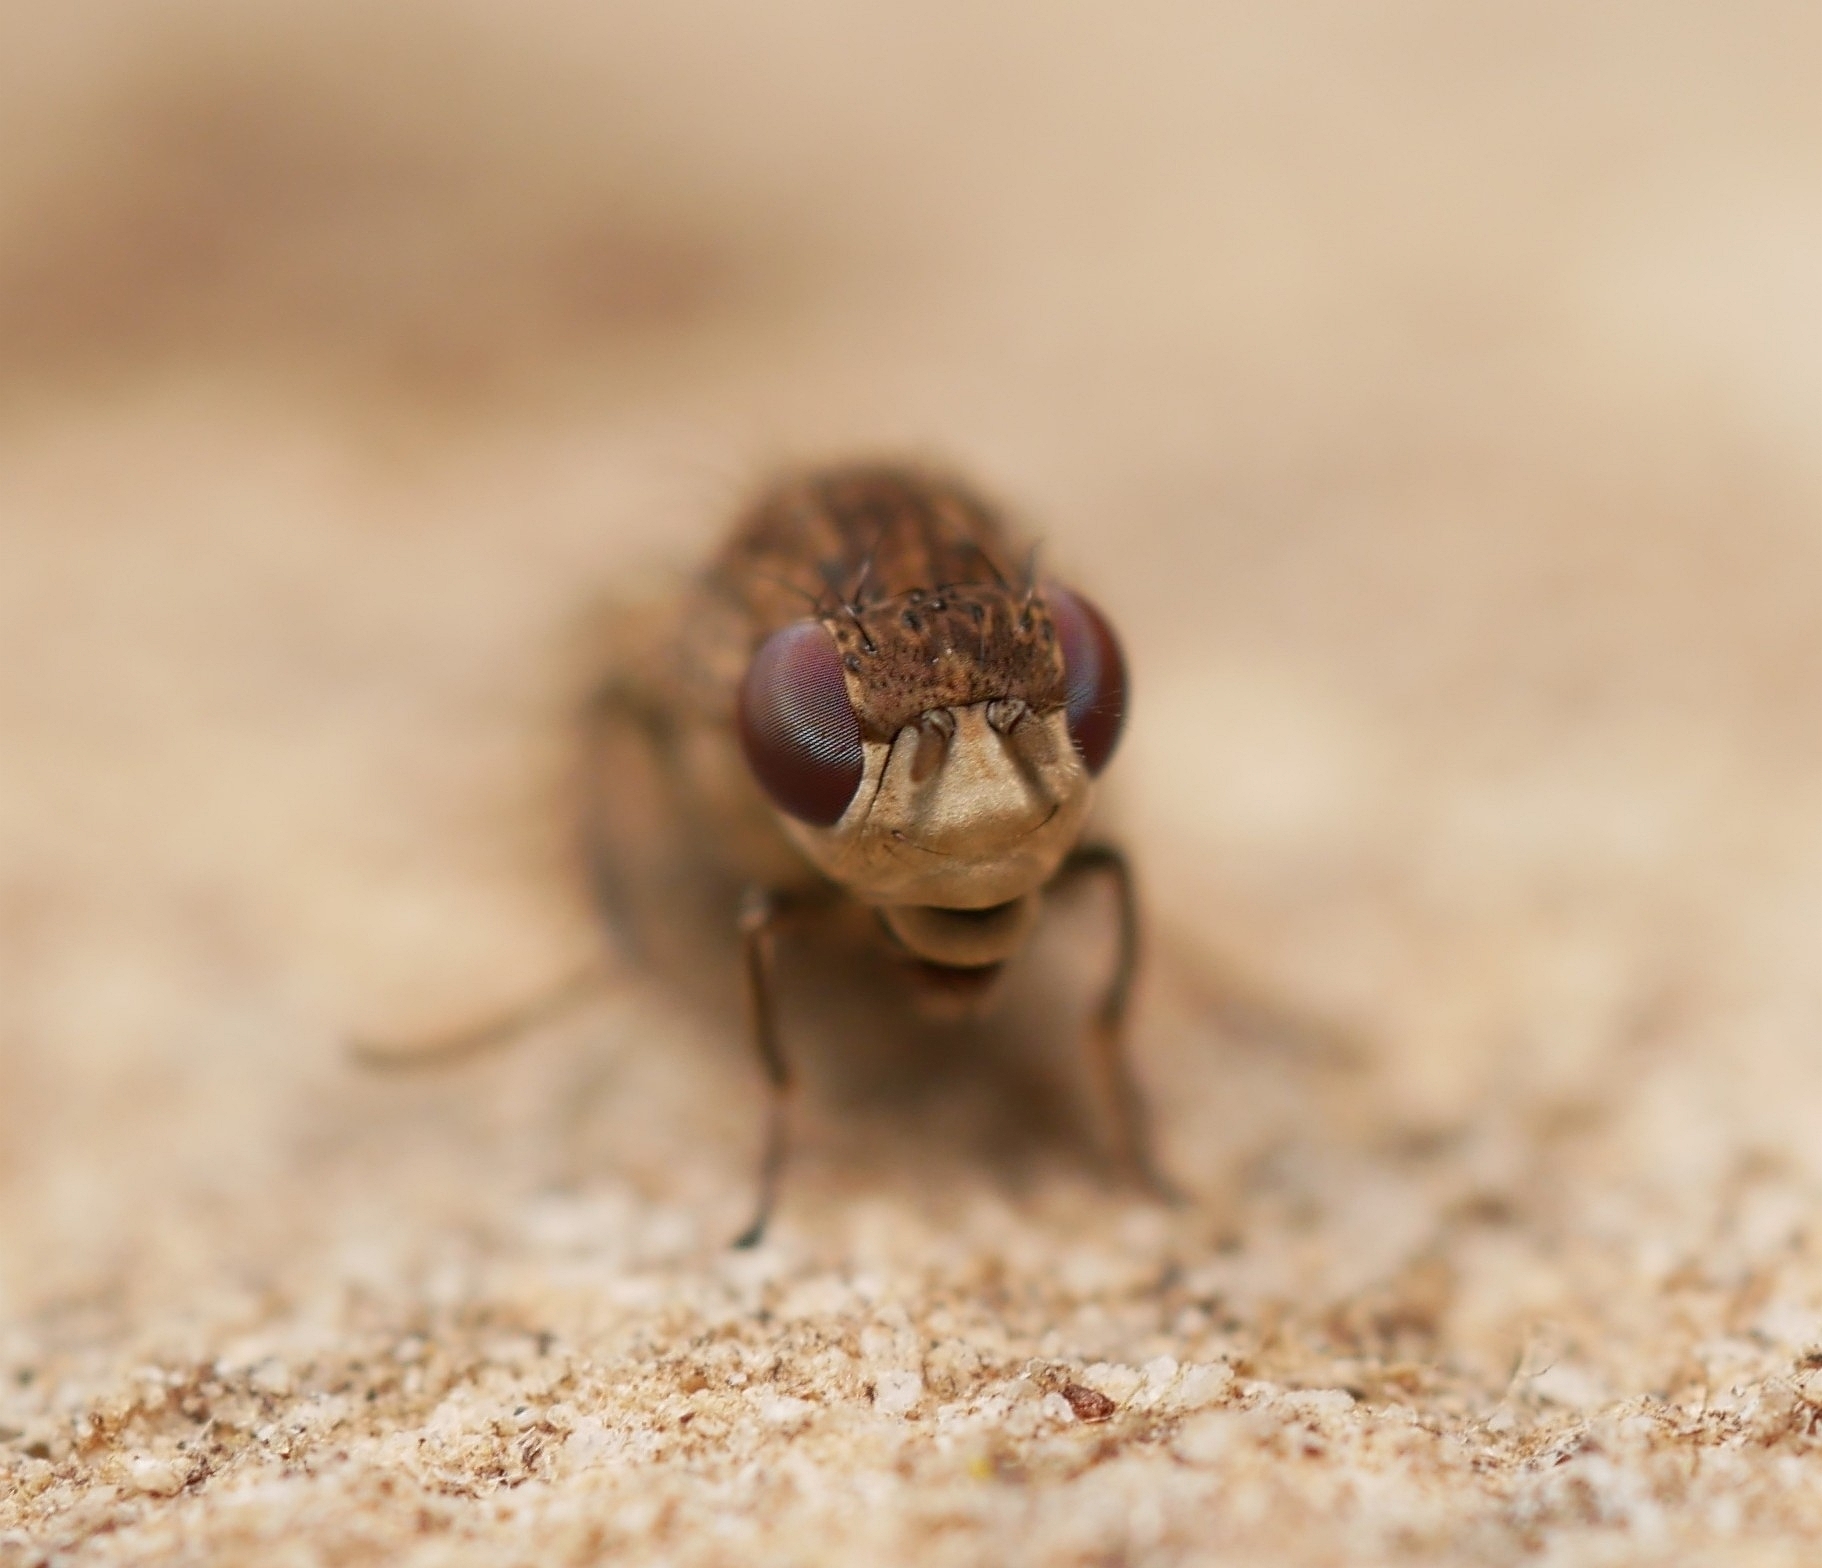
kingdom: Animalia
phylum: Arthropoda
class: Insecta
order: Diptera
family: Ephydridae
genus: Paralimna
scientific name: Paralimna thomae
